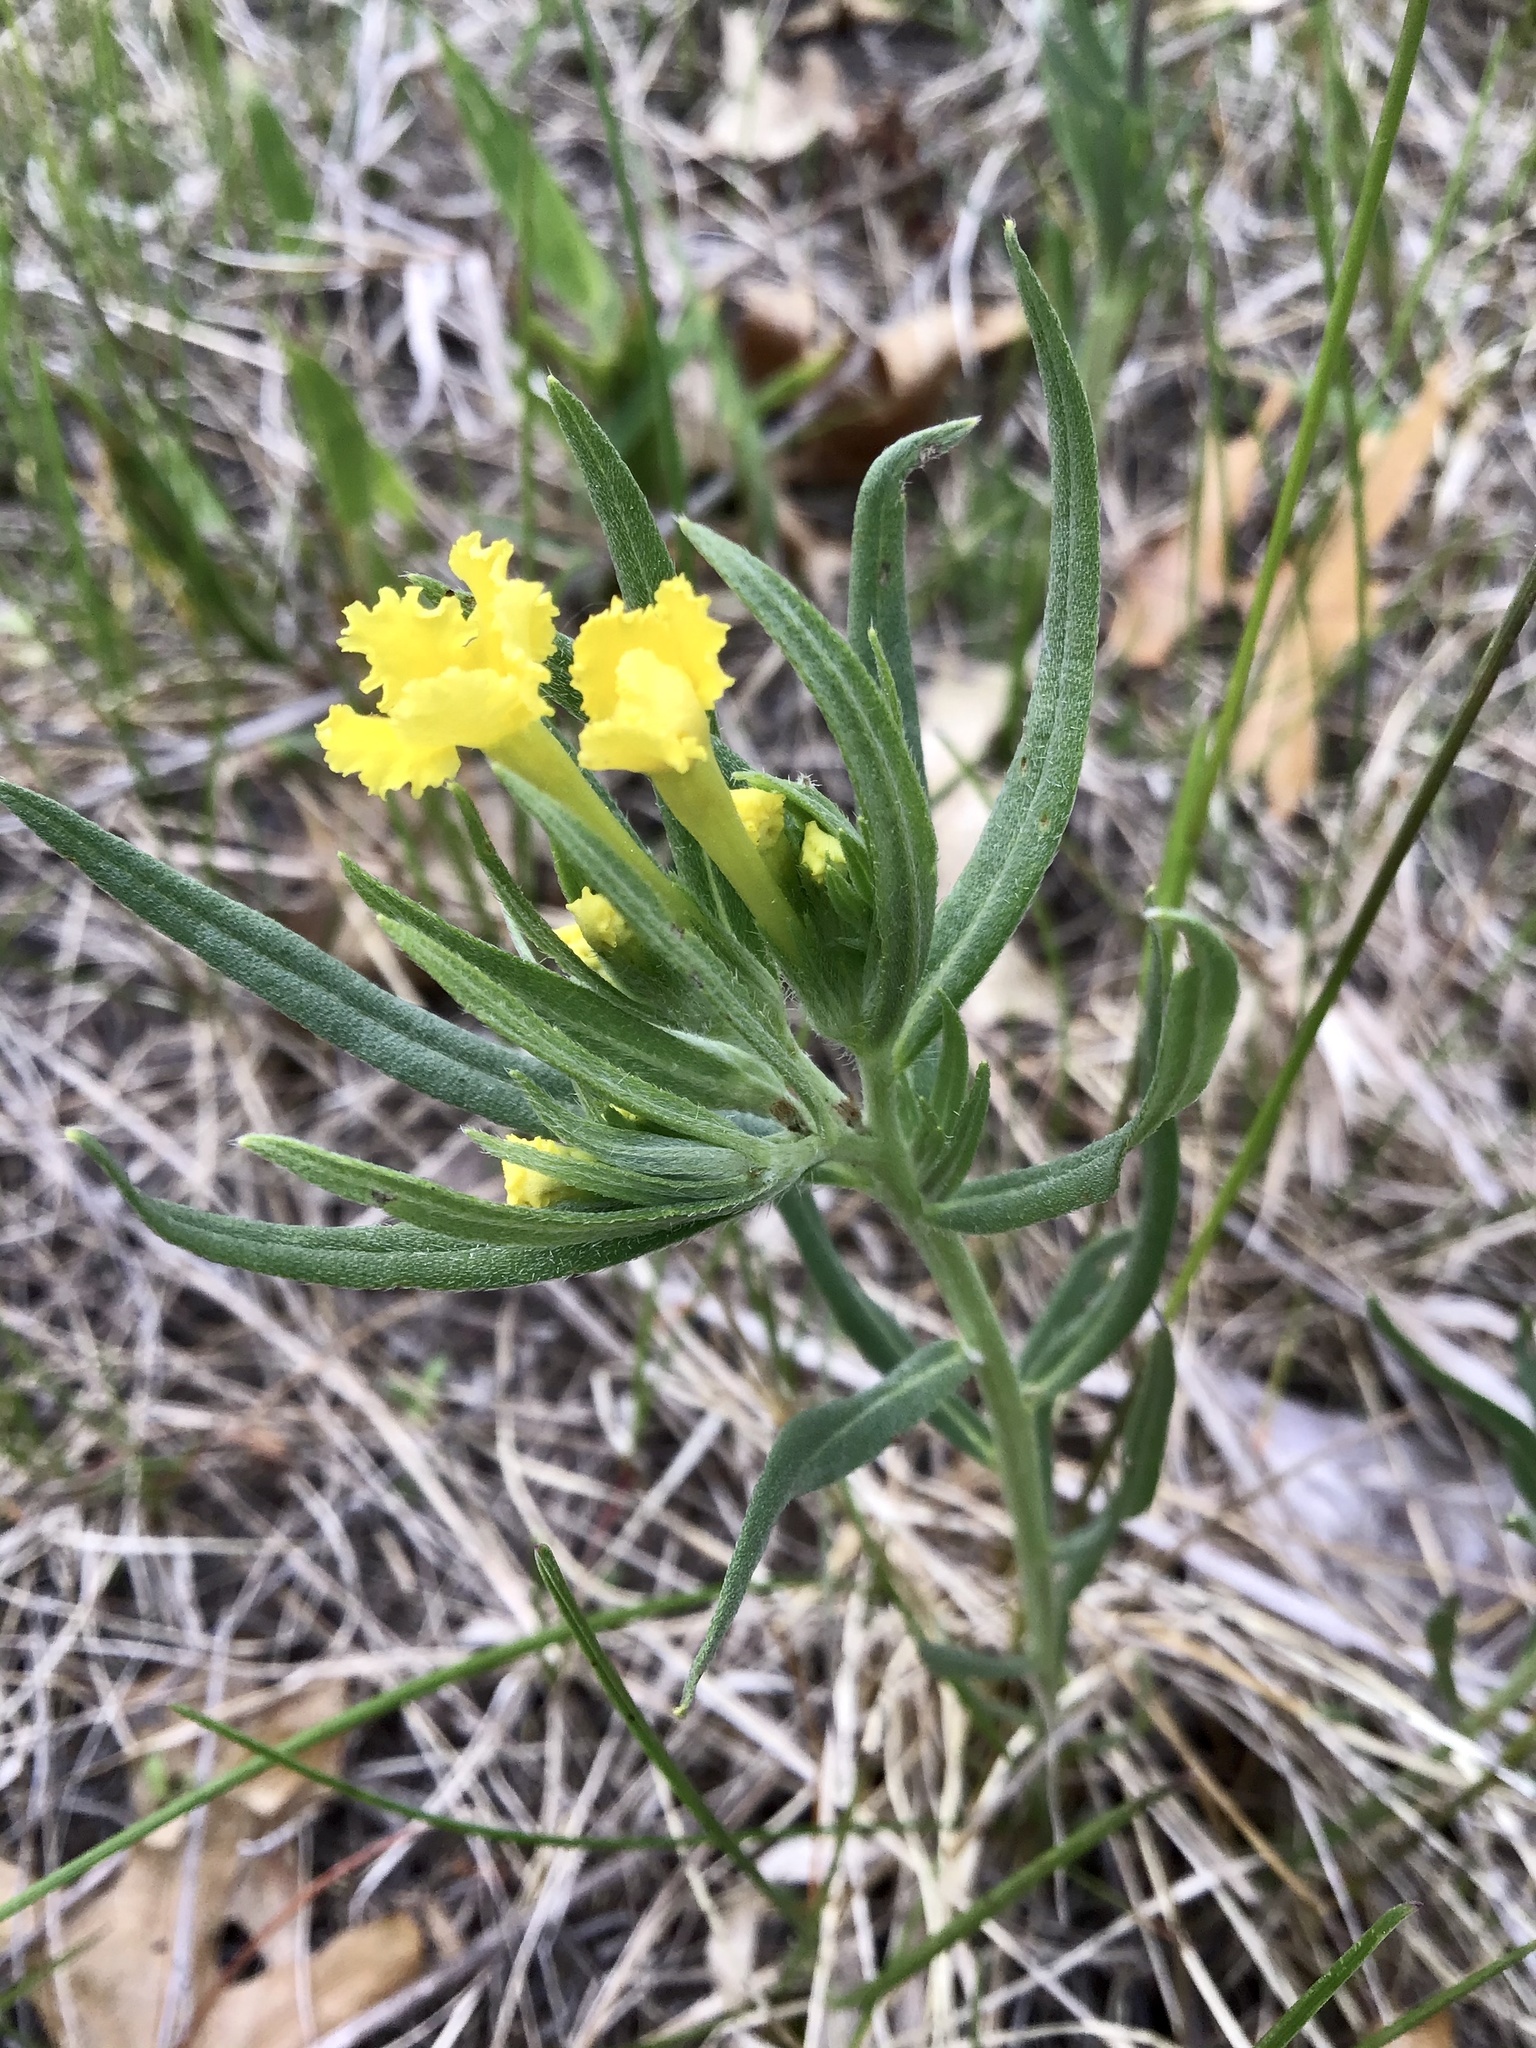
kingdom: Plantae
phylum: Tracheophyta
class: Magnoliopsida
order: Boraginales
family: Boraginaceae
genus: Lithospermum
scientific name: Lithospermum incisum
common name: Fringed gromwell
